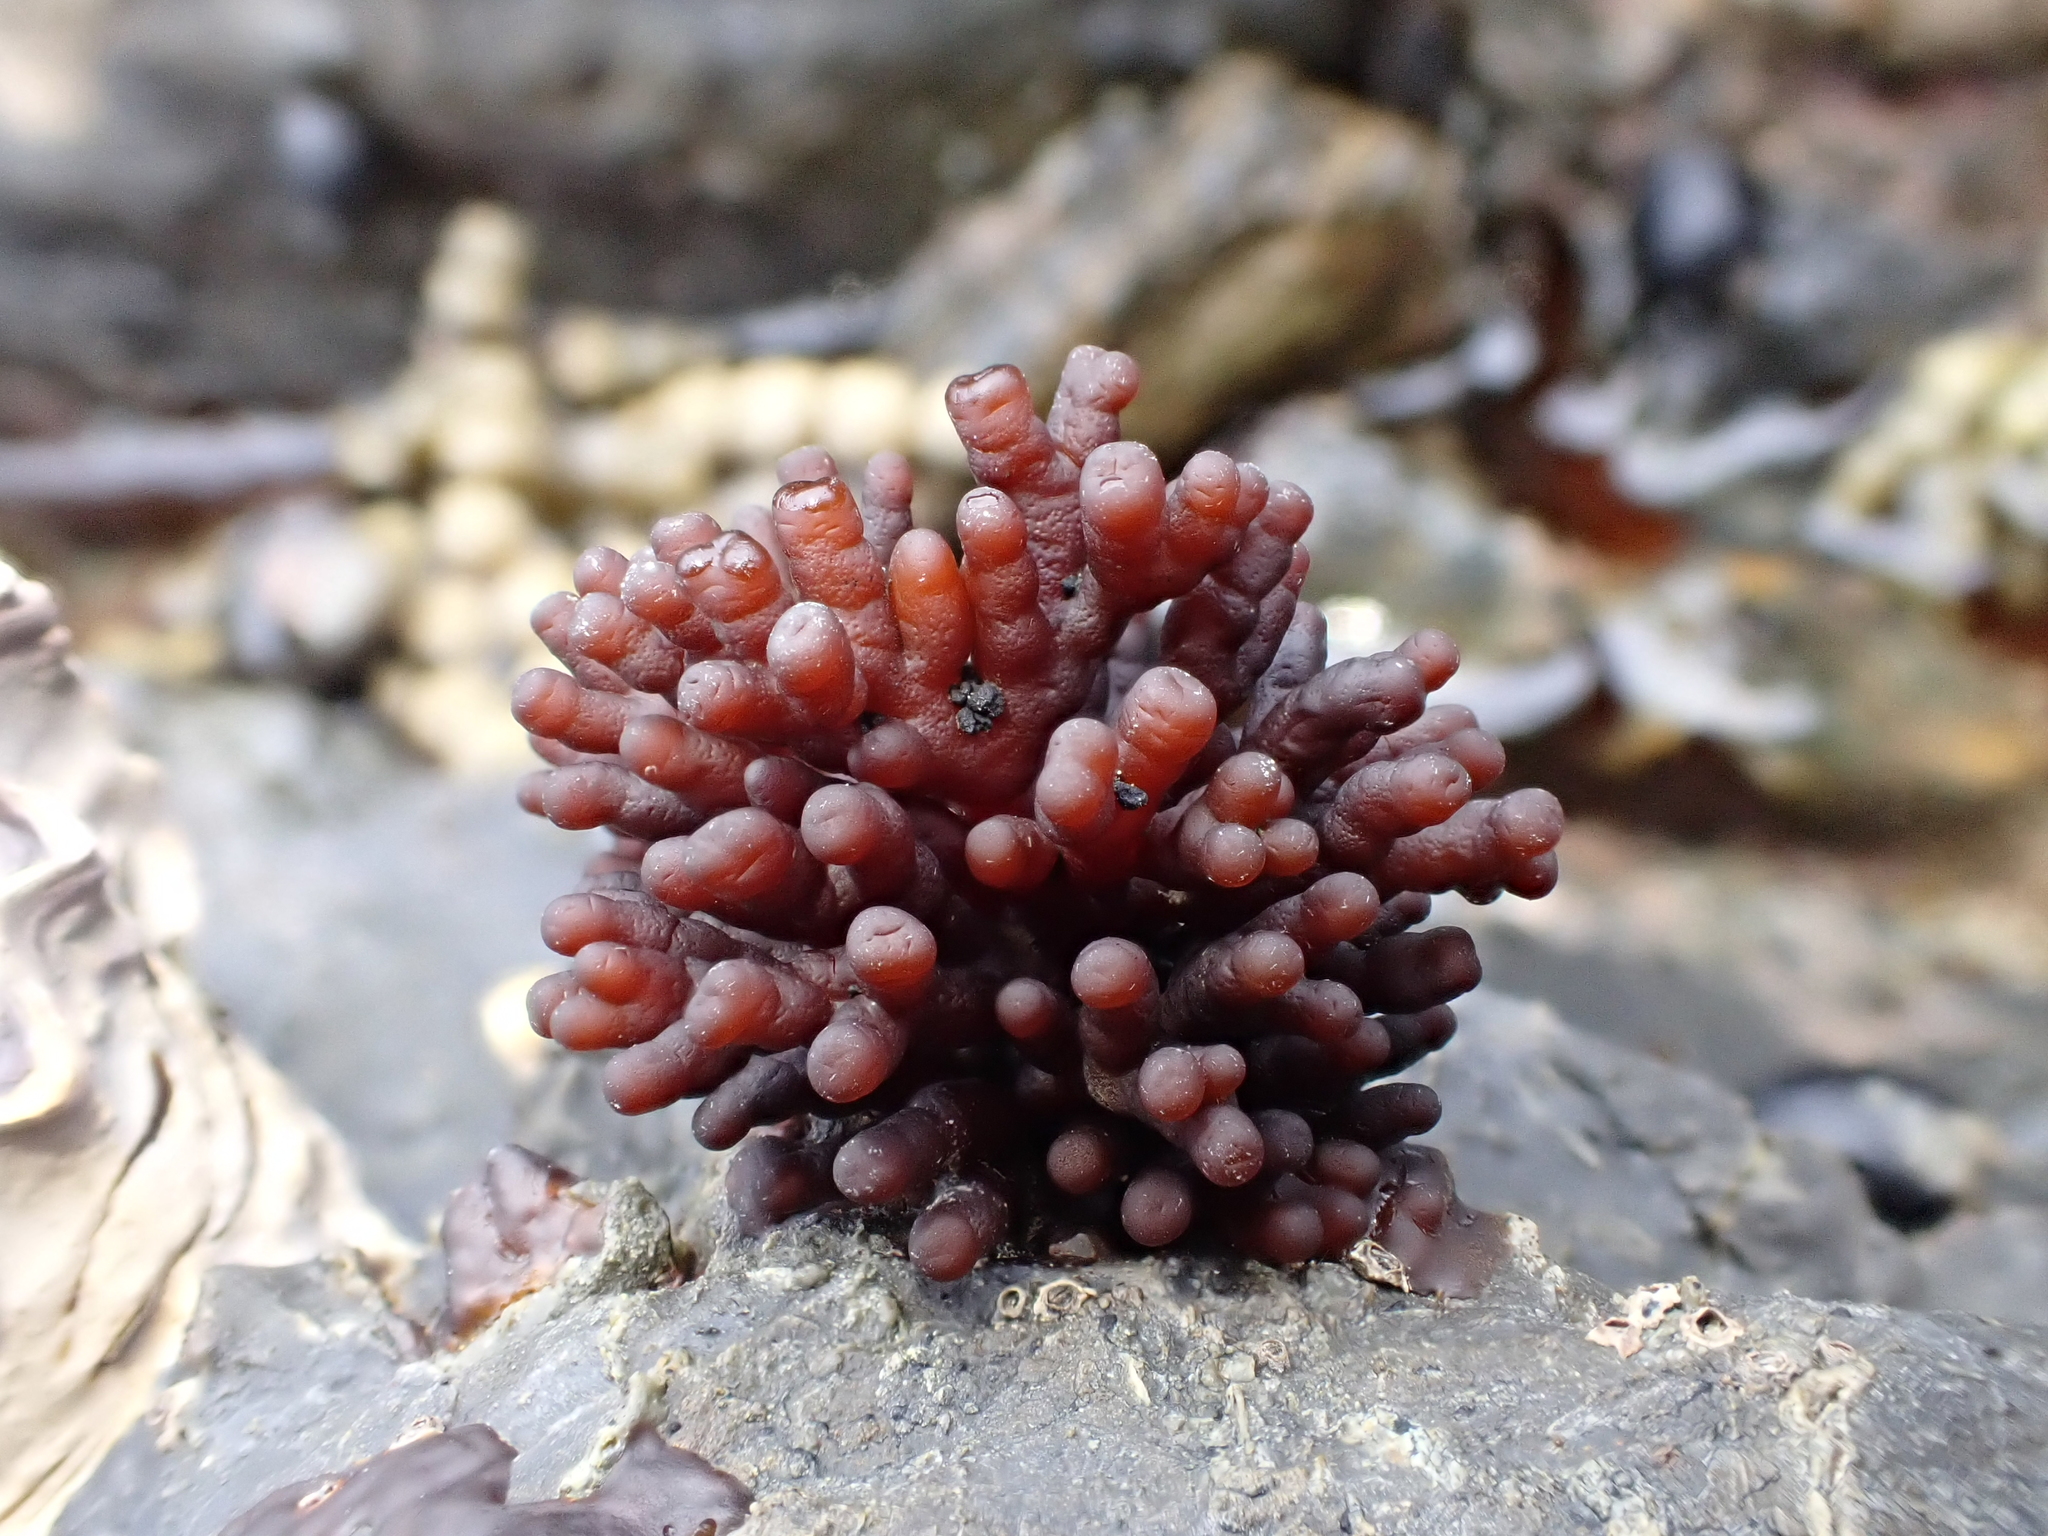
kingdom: Plantae
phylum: Rhodophyta
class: Florideophyceae
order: Hildenbrandiales
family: Hildenbrandiaceae
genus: Apophlaea
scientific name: Apophlaea sinclairii
